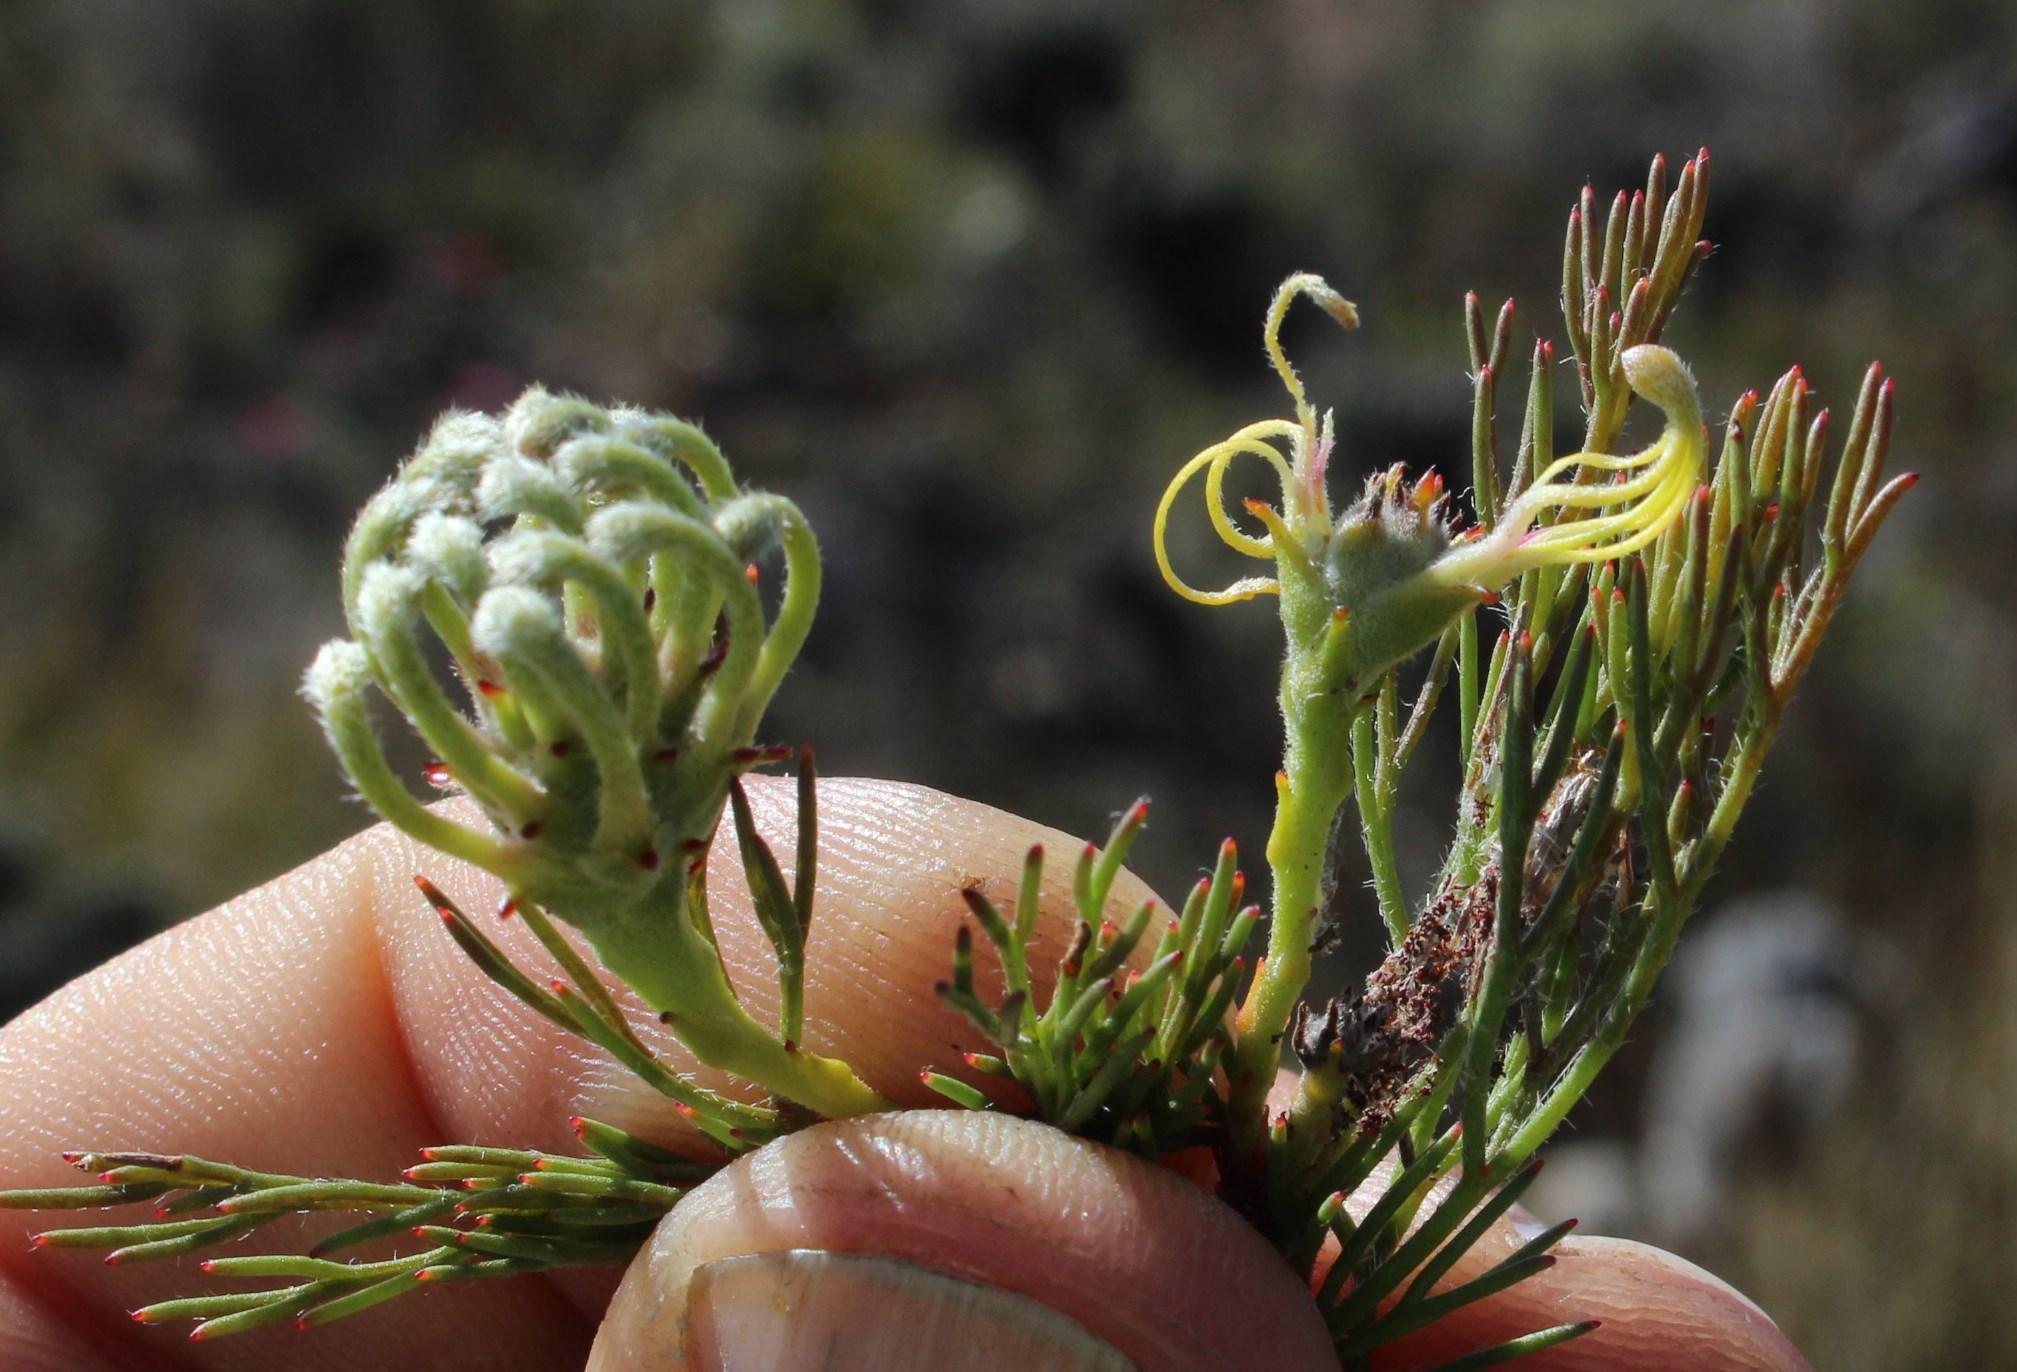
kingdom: Plantae
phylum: Tracheophyta
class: Magnoliopsida
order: Proteales
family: Proteaceae
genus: Serruria
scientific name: Serruria
